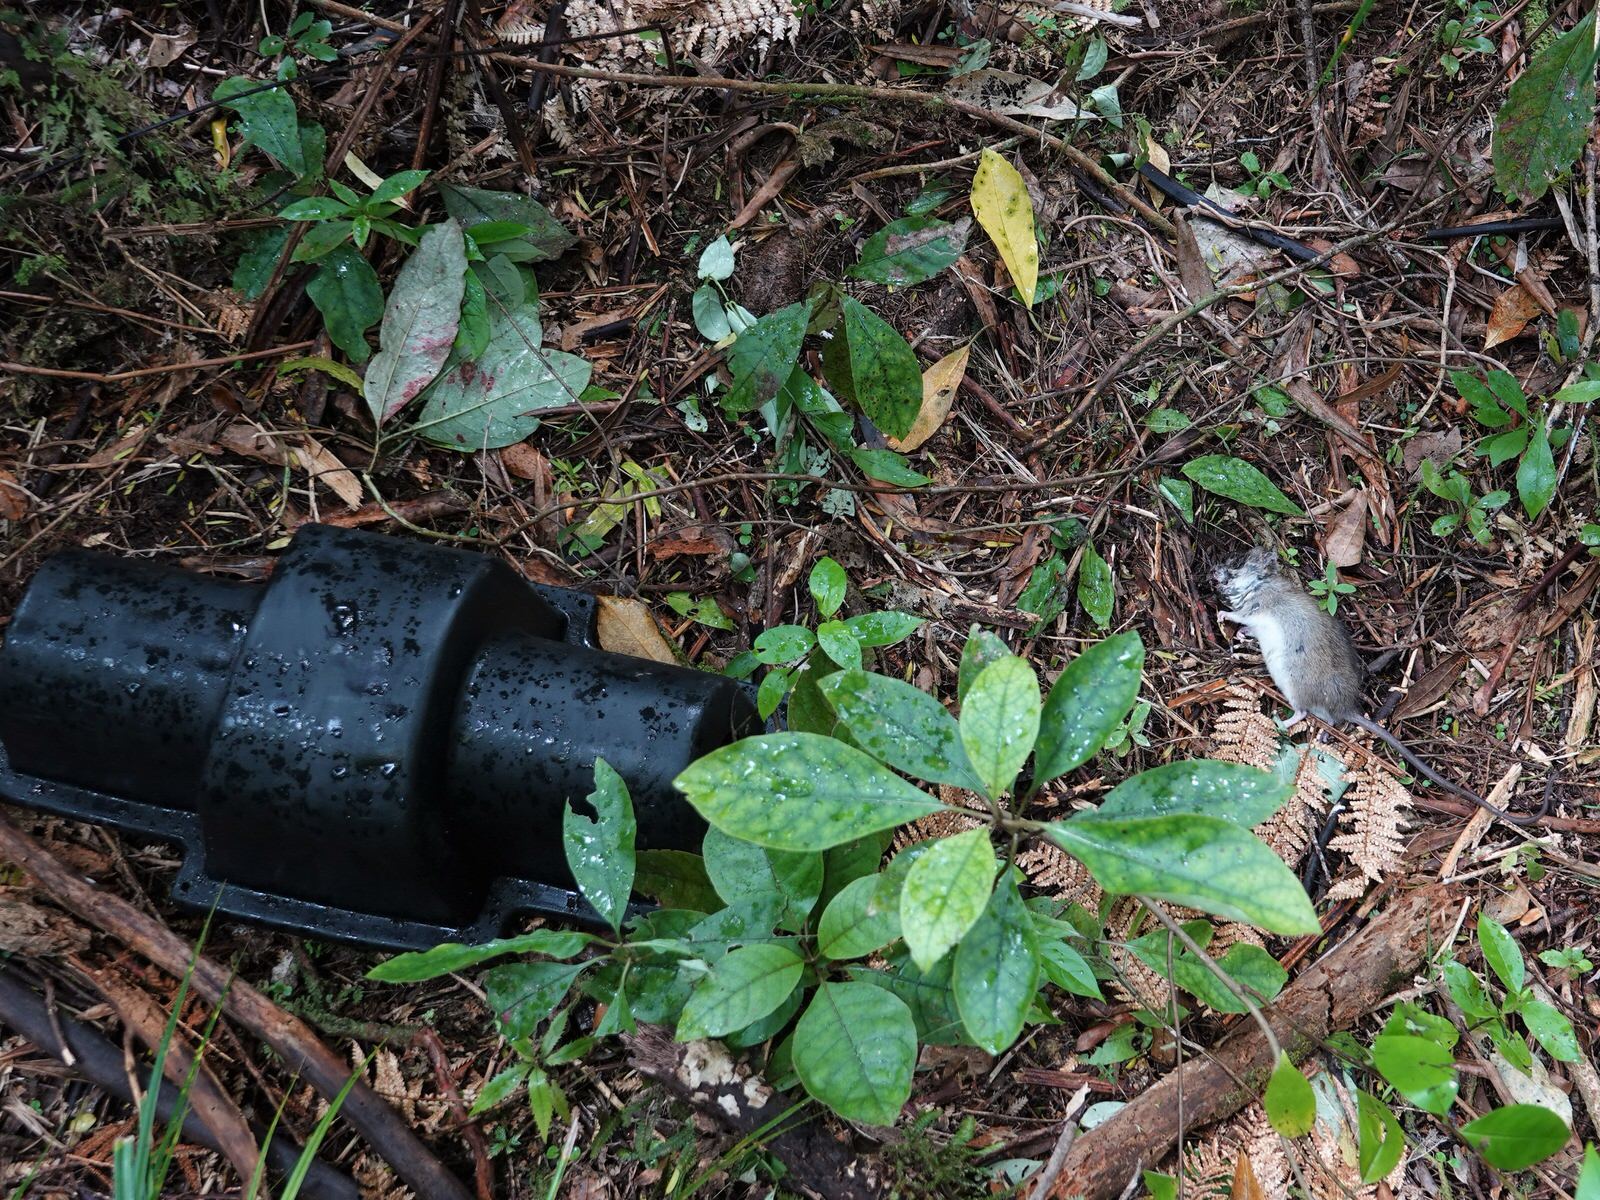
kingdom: Animalia
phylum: Chordata
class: Mammalia
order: Rodentia
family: Muridae
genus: Rattus
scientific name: Rattus rattus
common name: Black rat
